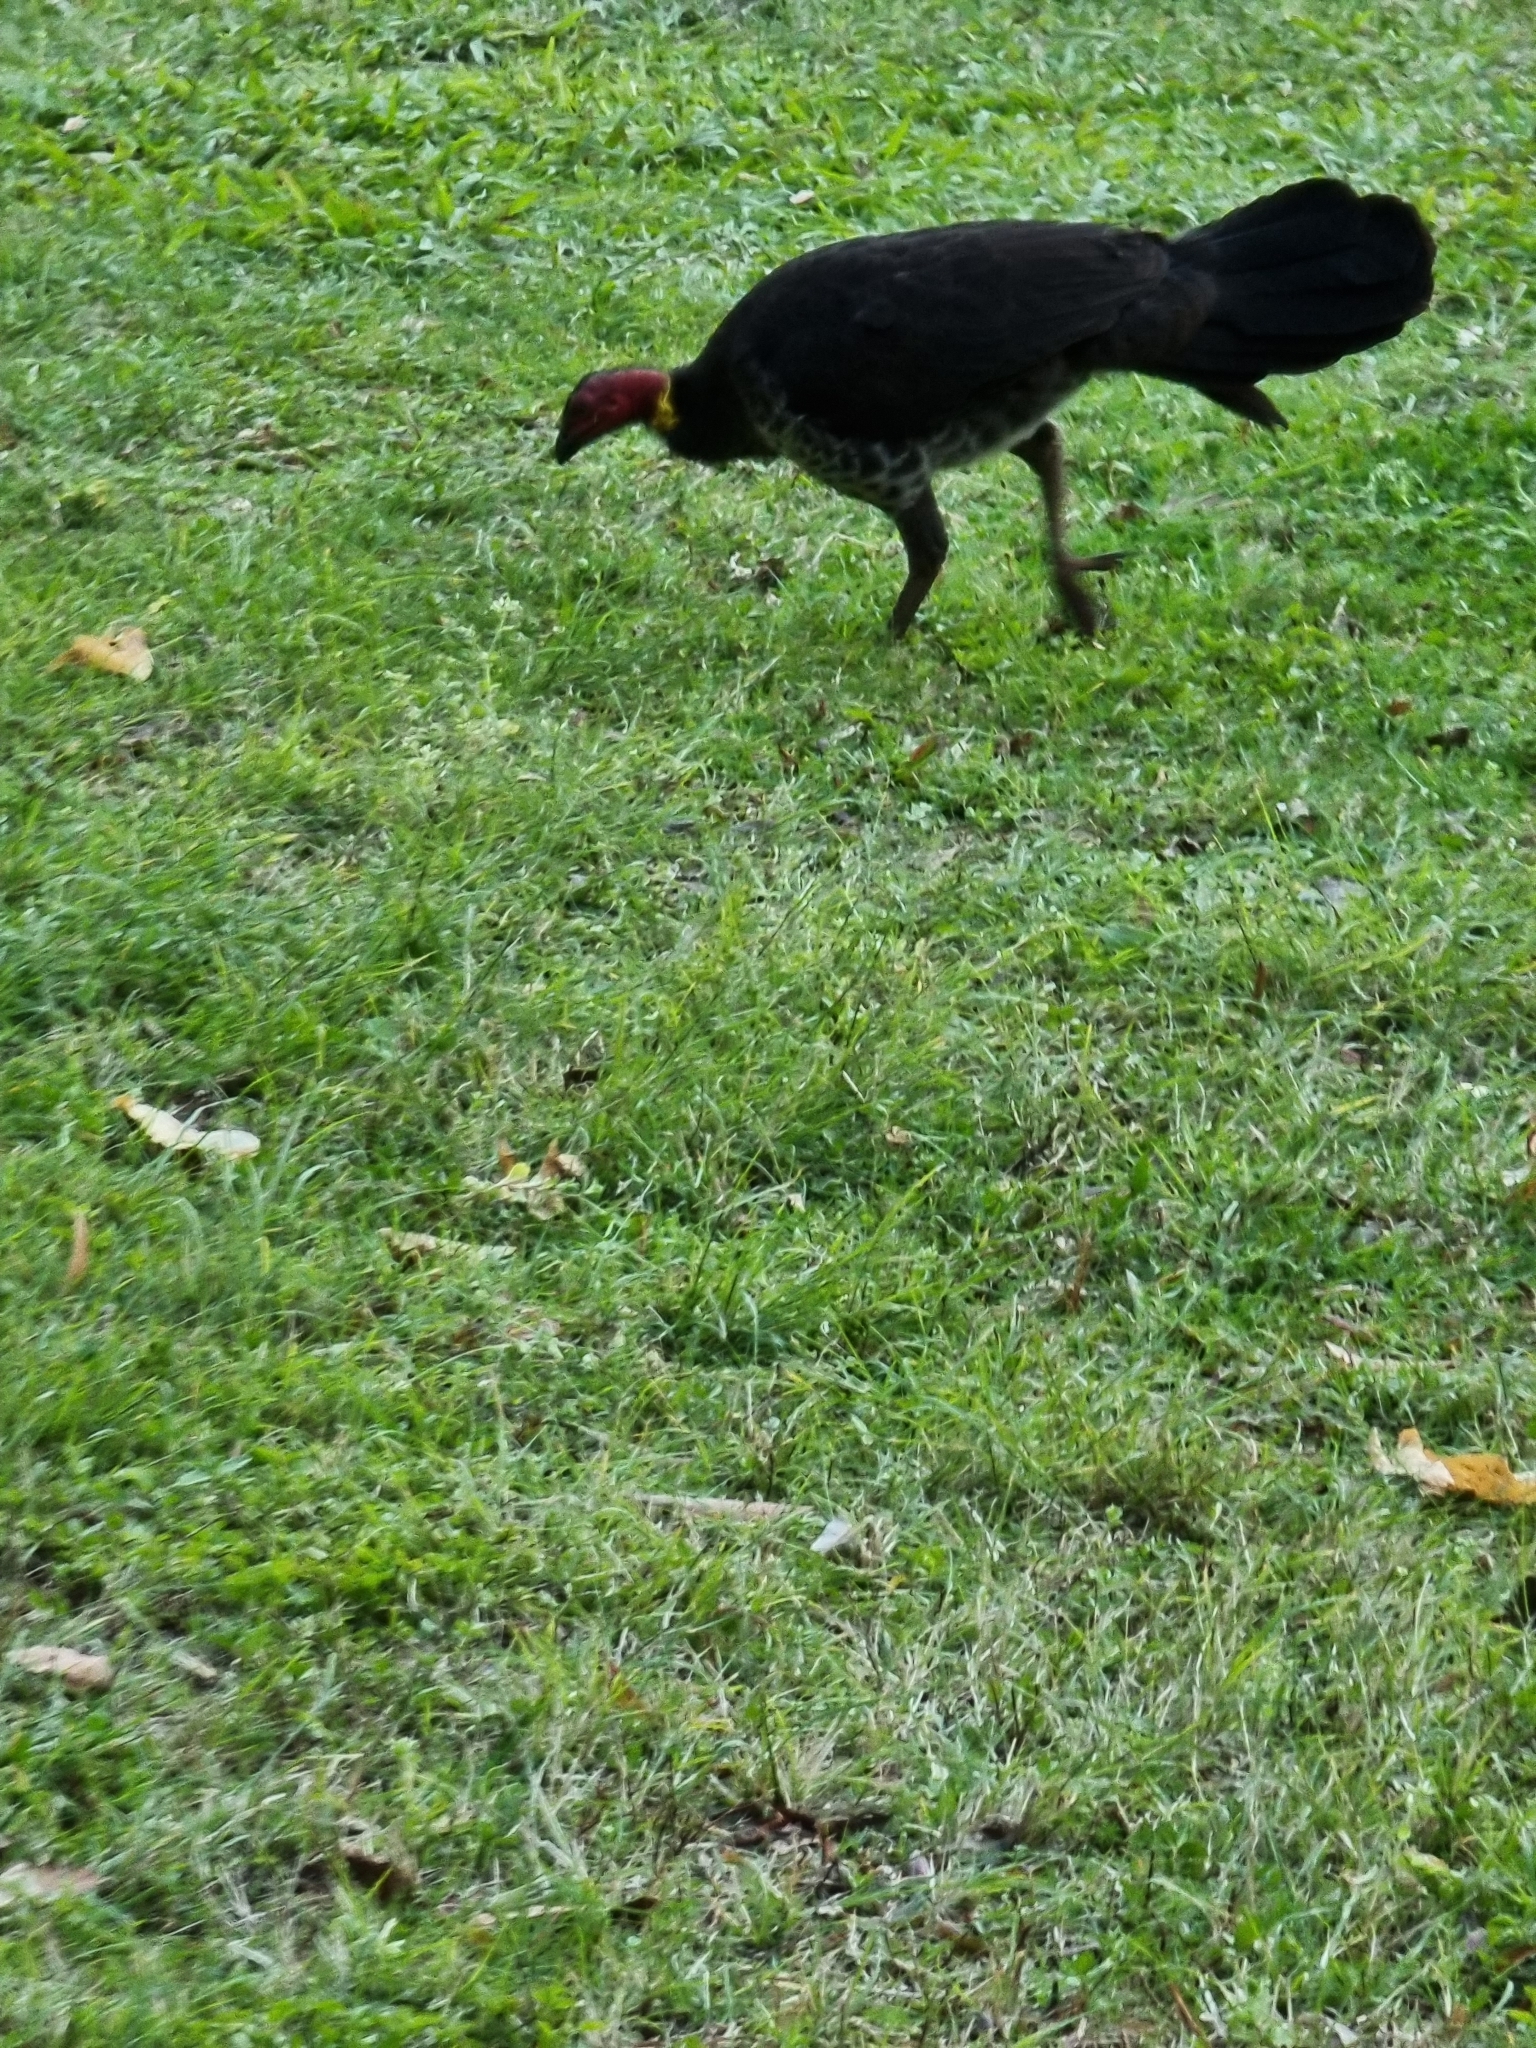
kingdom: Animalia
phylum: Chordata
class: Aves
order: Galliformes
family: Megapodiidae
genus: Alectura
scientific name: Alectura lathami
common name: Australian brushturkey
